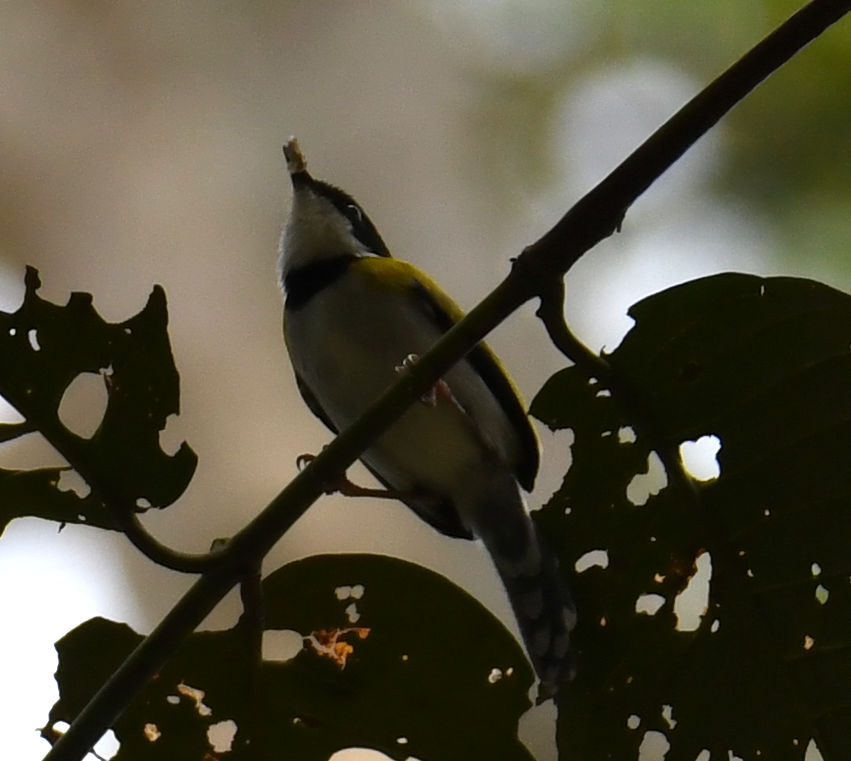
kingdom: Animalia
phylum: Chordata
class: Aves
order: Passeriformes
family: Cisticolidae
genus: Apalis
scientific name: Apalis nigriceps
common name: Black-capped apalis
